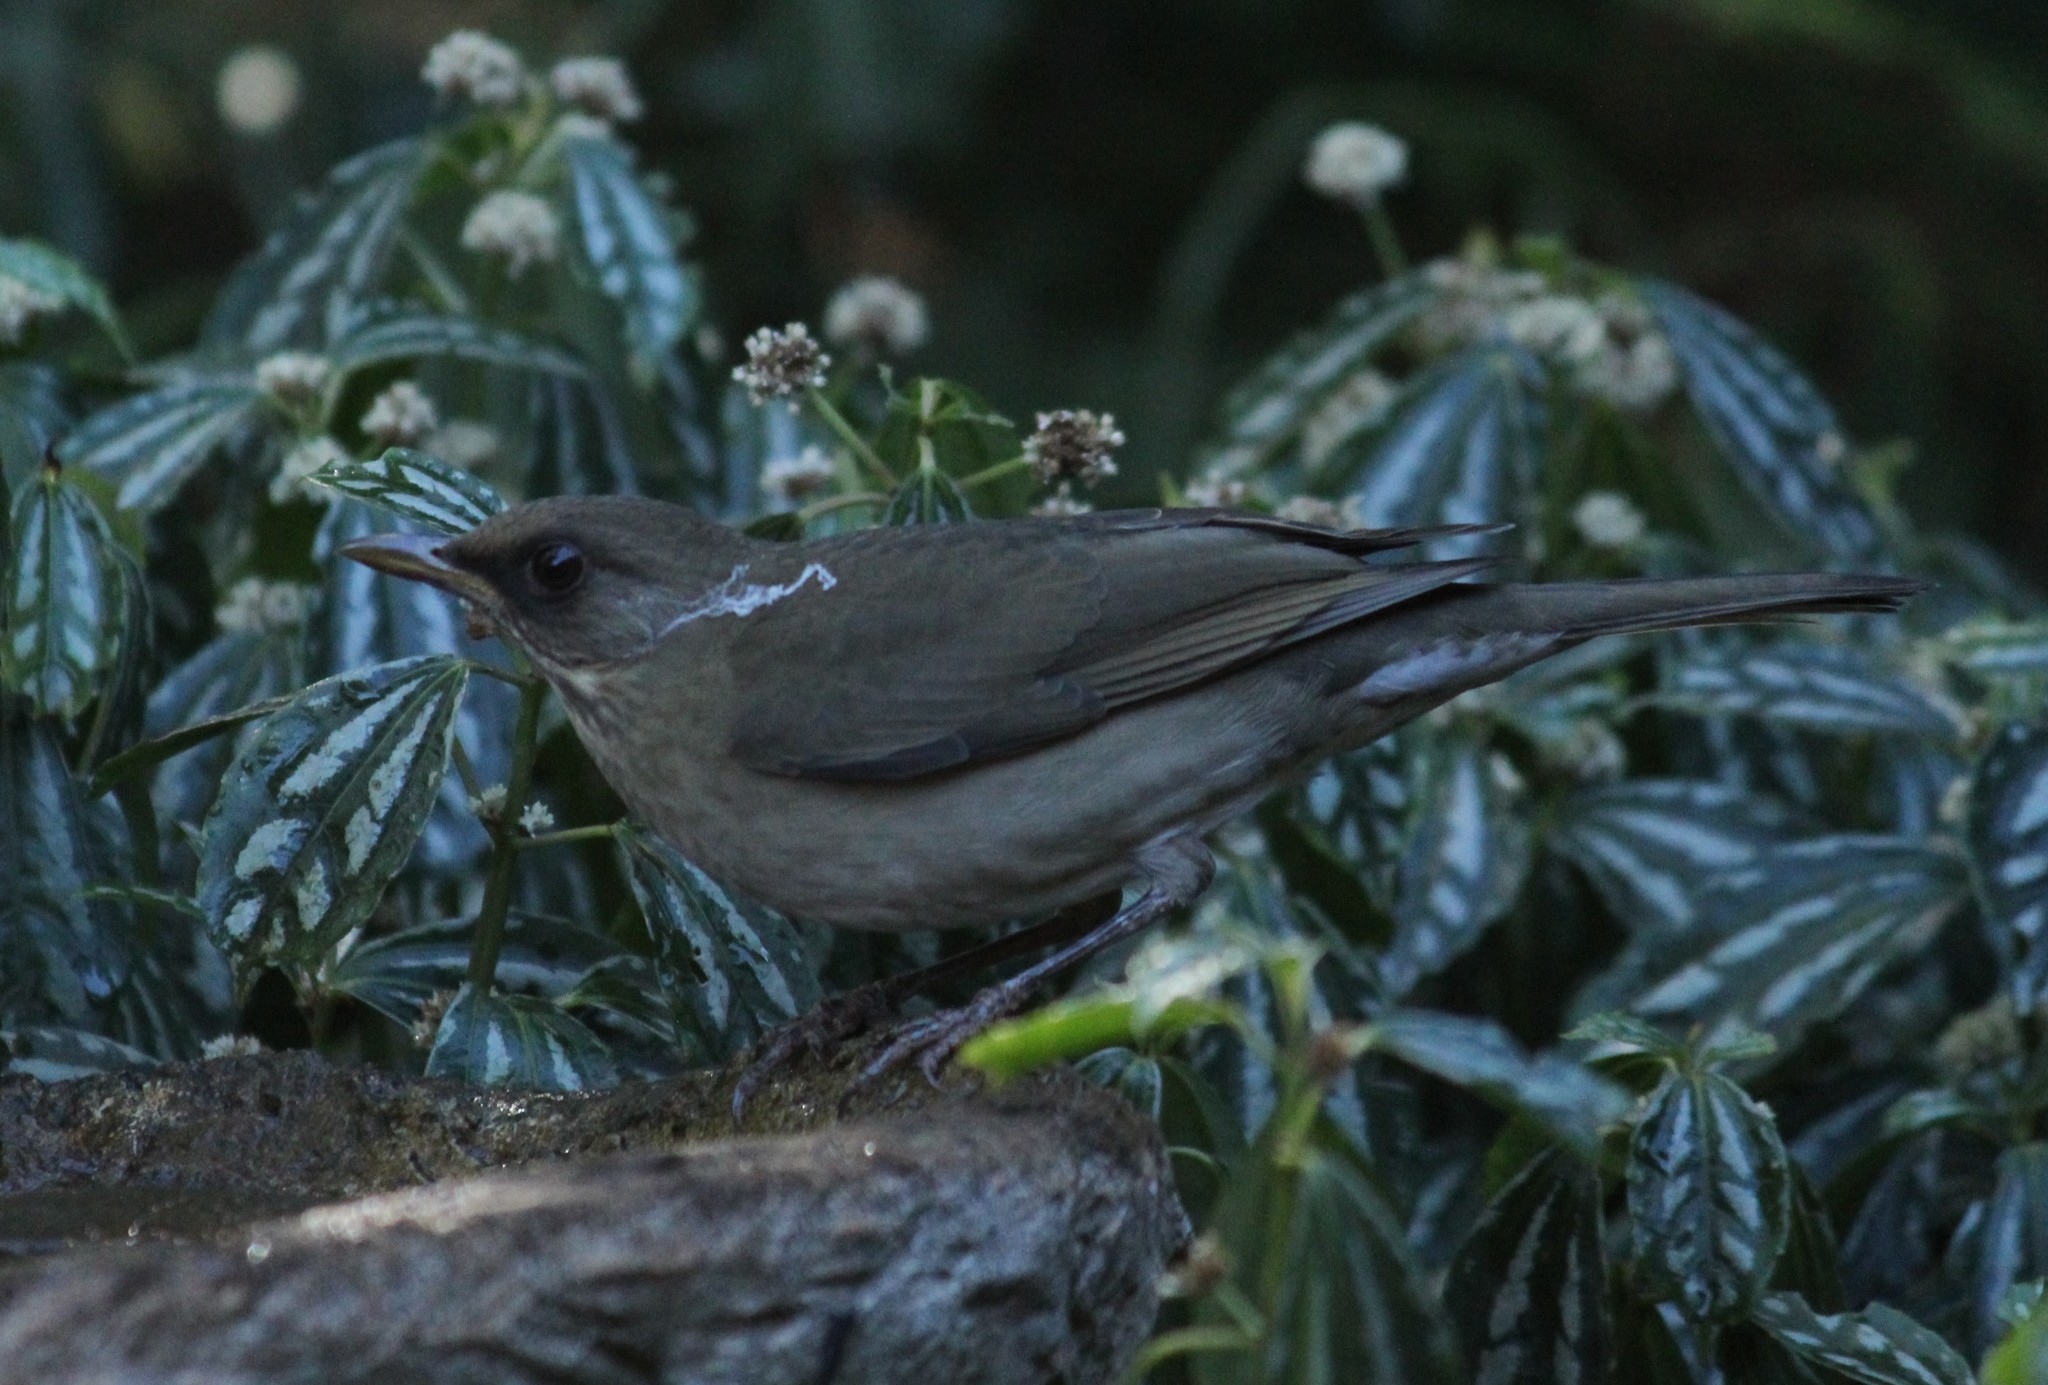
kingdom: Animalia
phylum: Chordata
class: Aves
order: Passeriformes
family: Turdidae
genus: Turdus
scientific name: Turdus amaurochalinus
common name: Creamy-bellied thrush
